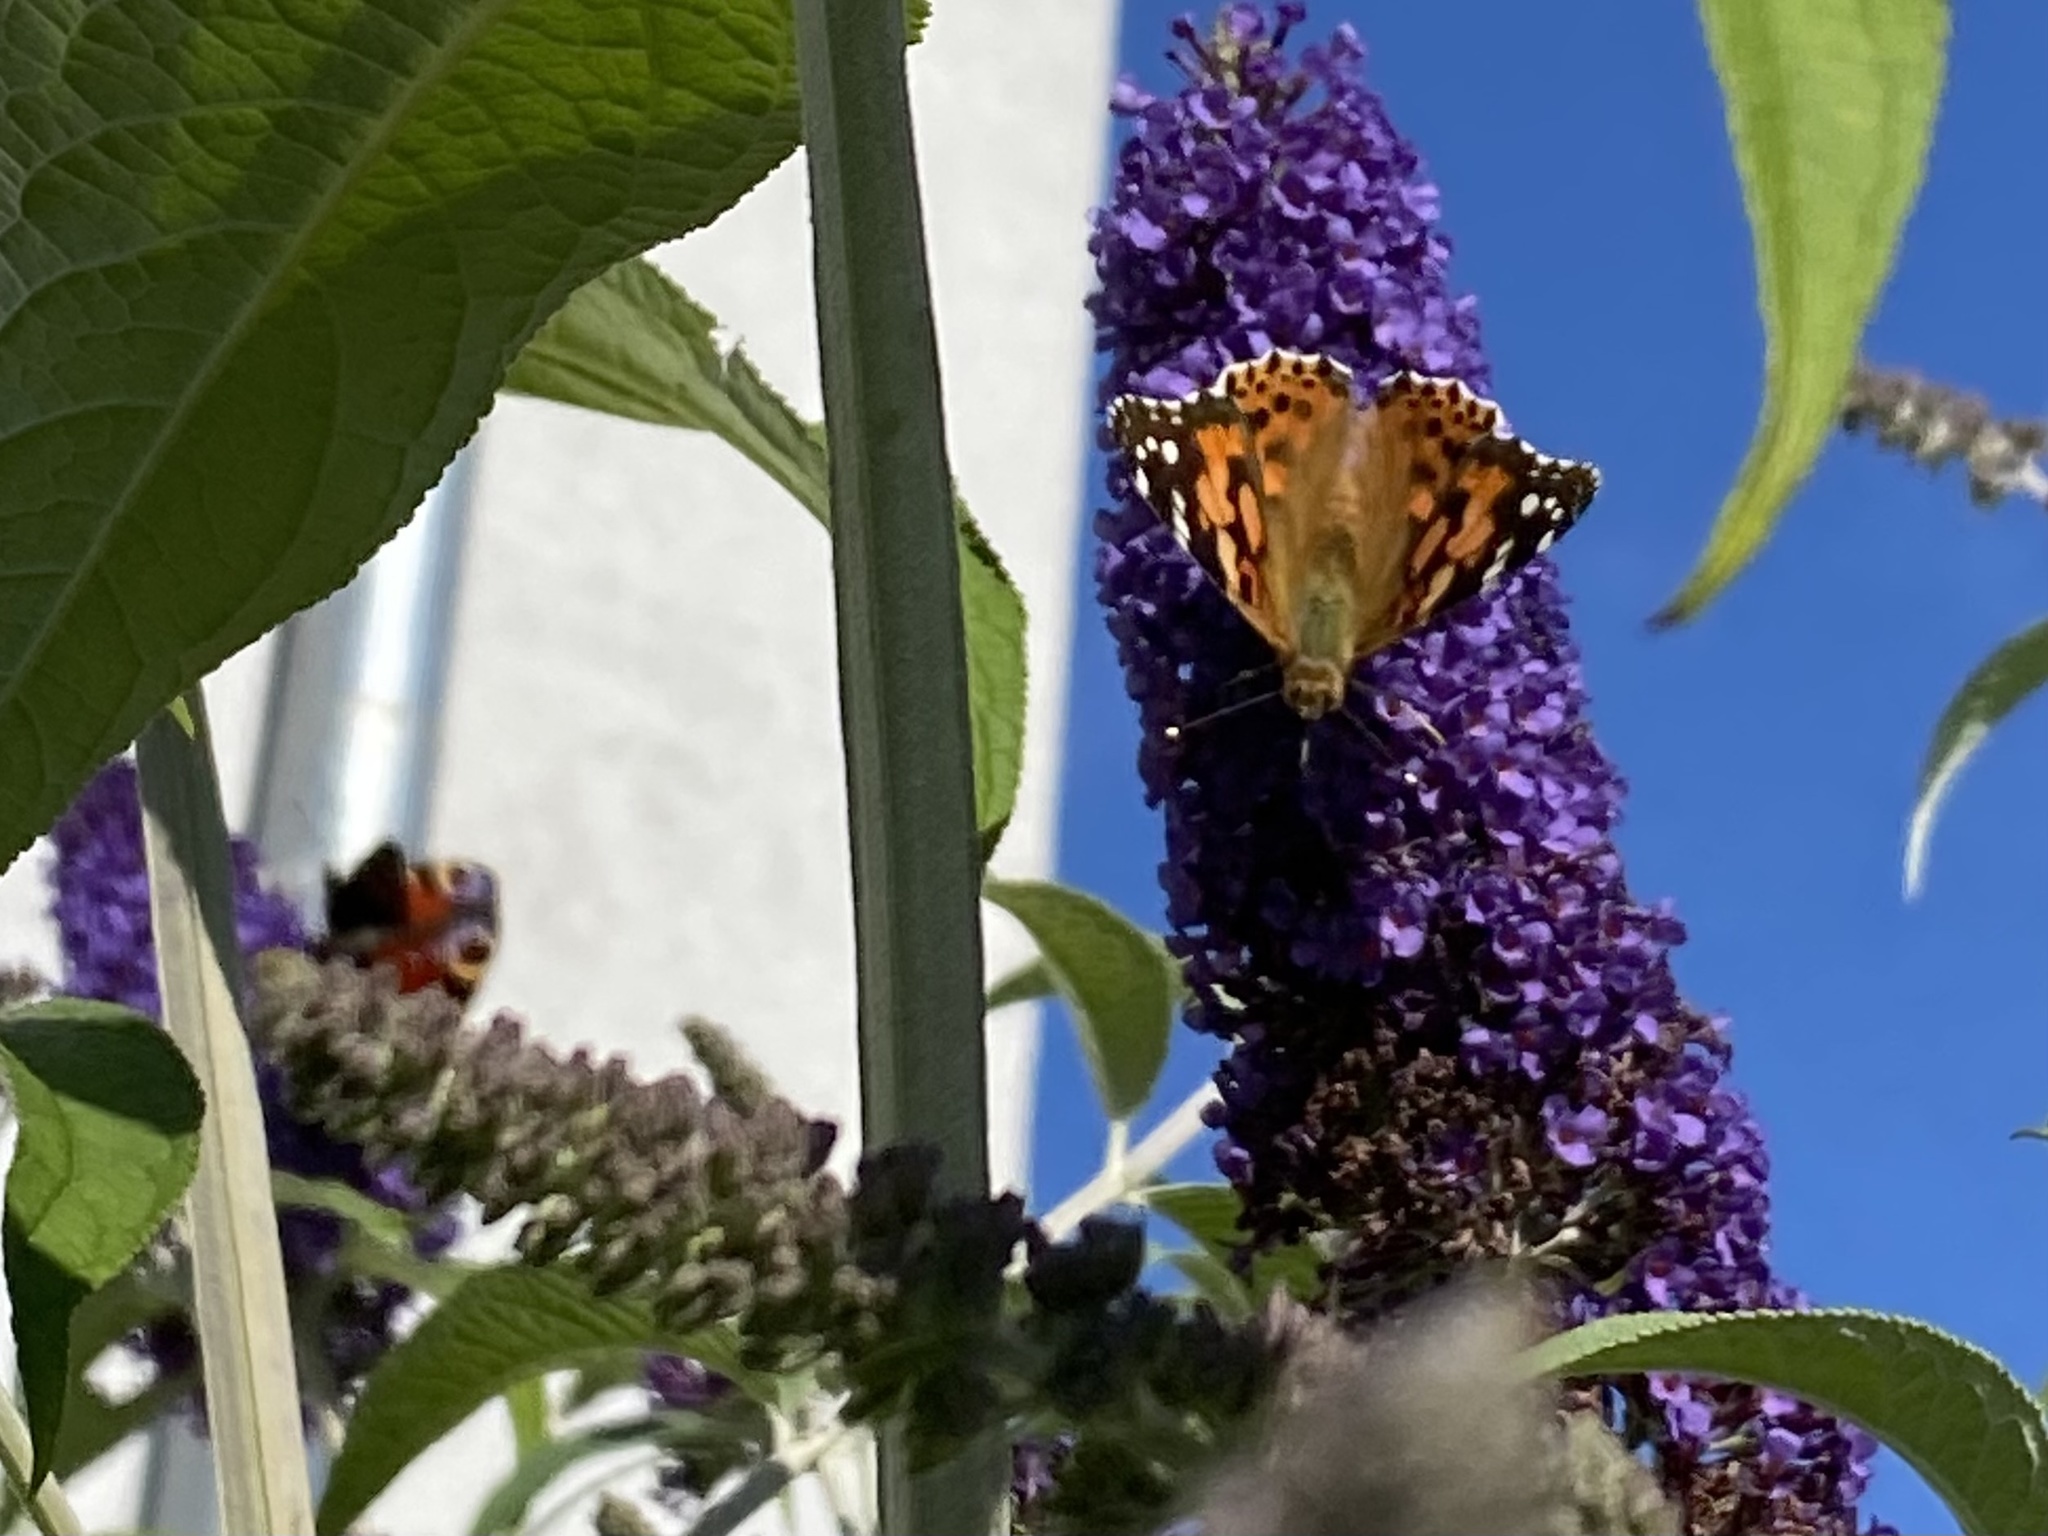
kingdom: Animalia
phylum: Arthropoda
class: Insecta
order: Lepidoptera
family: Nymphalidae
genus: Vanessa
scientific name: Vanessa cardui
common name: Painted lady
